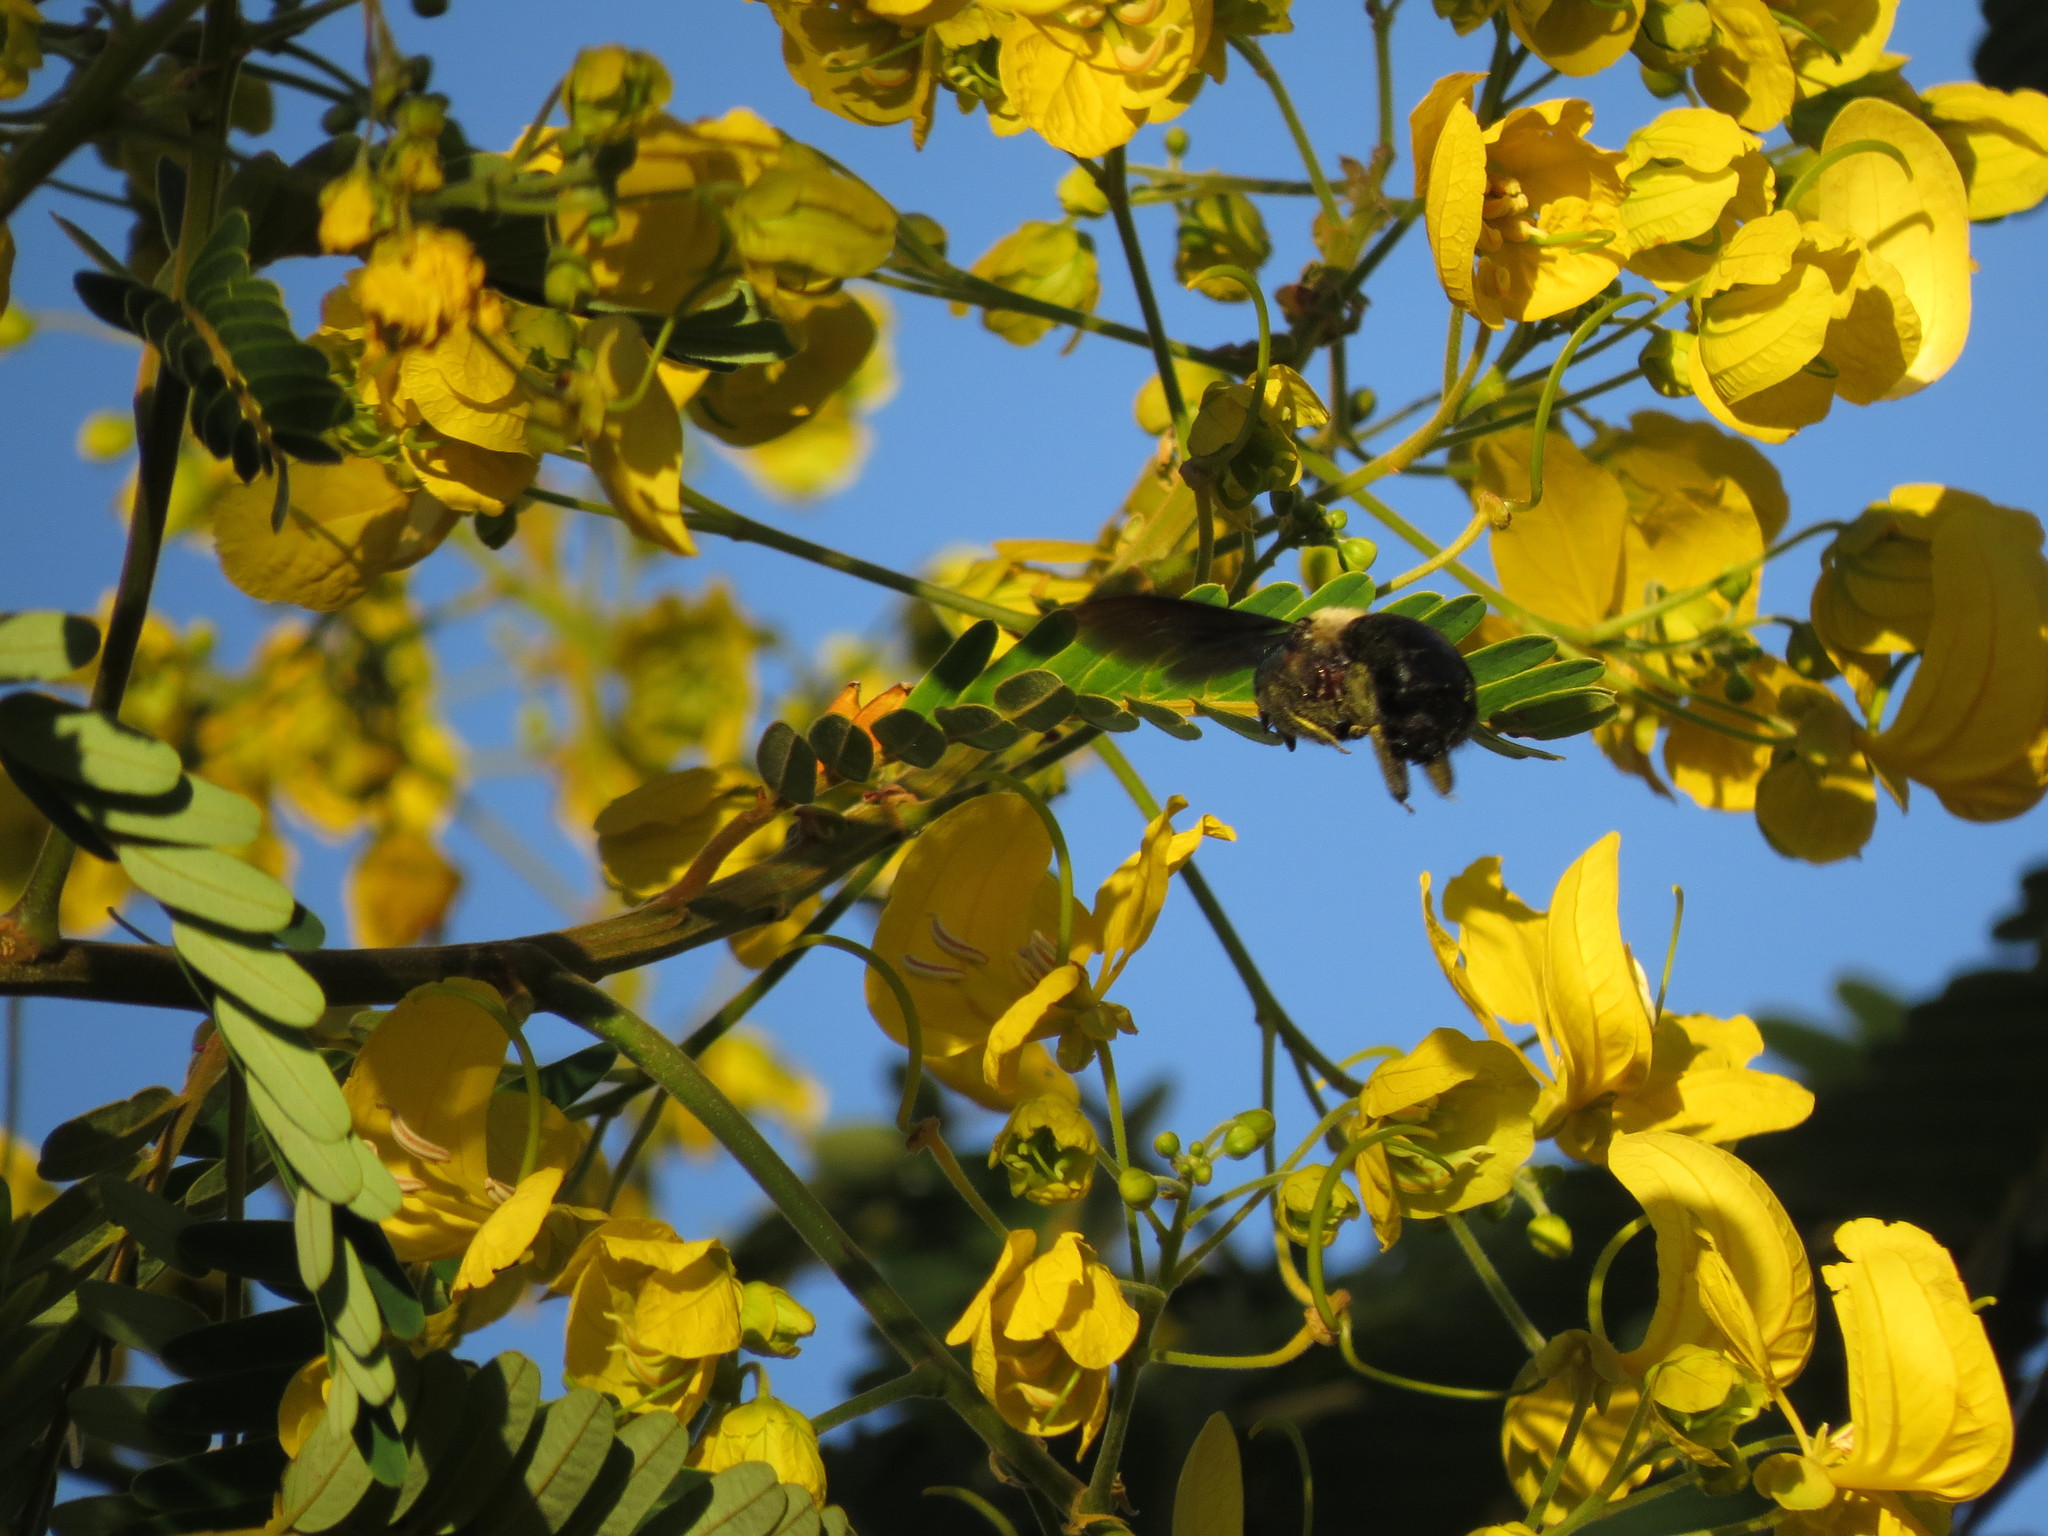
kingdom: Animalia
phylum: Arthropoda
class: Insecta
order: Hymenoptera
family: Apidae
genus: Xylocopa
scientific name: Xylocopa grisescens
